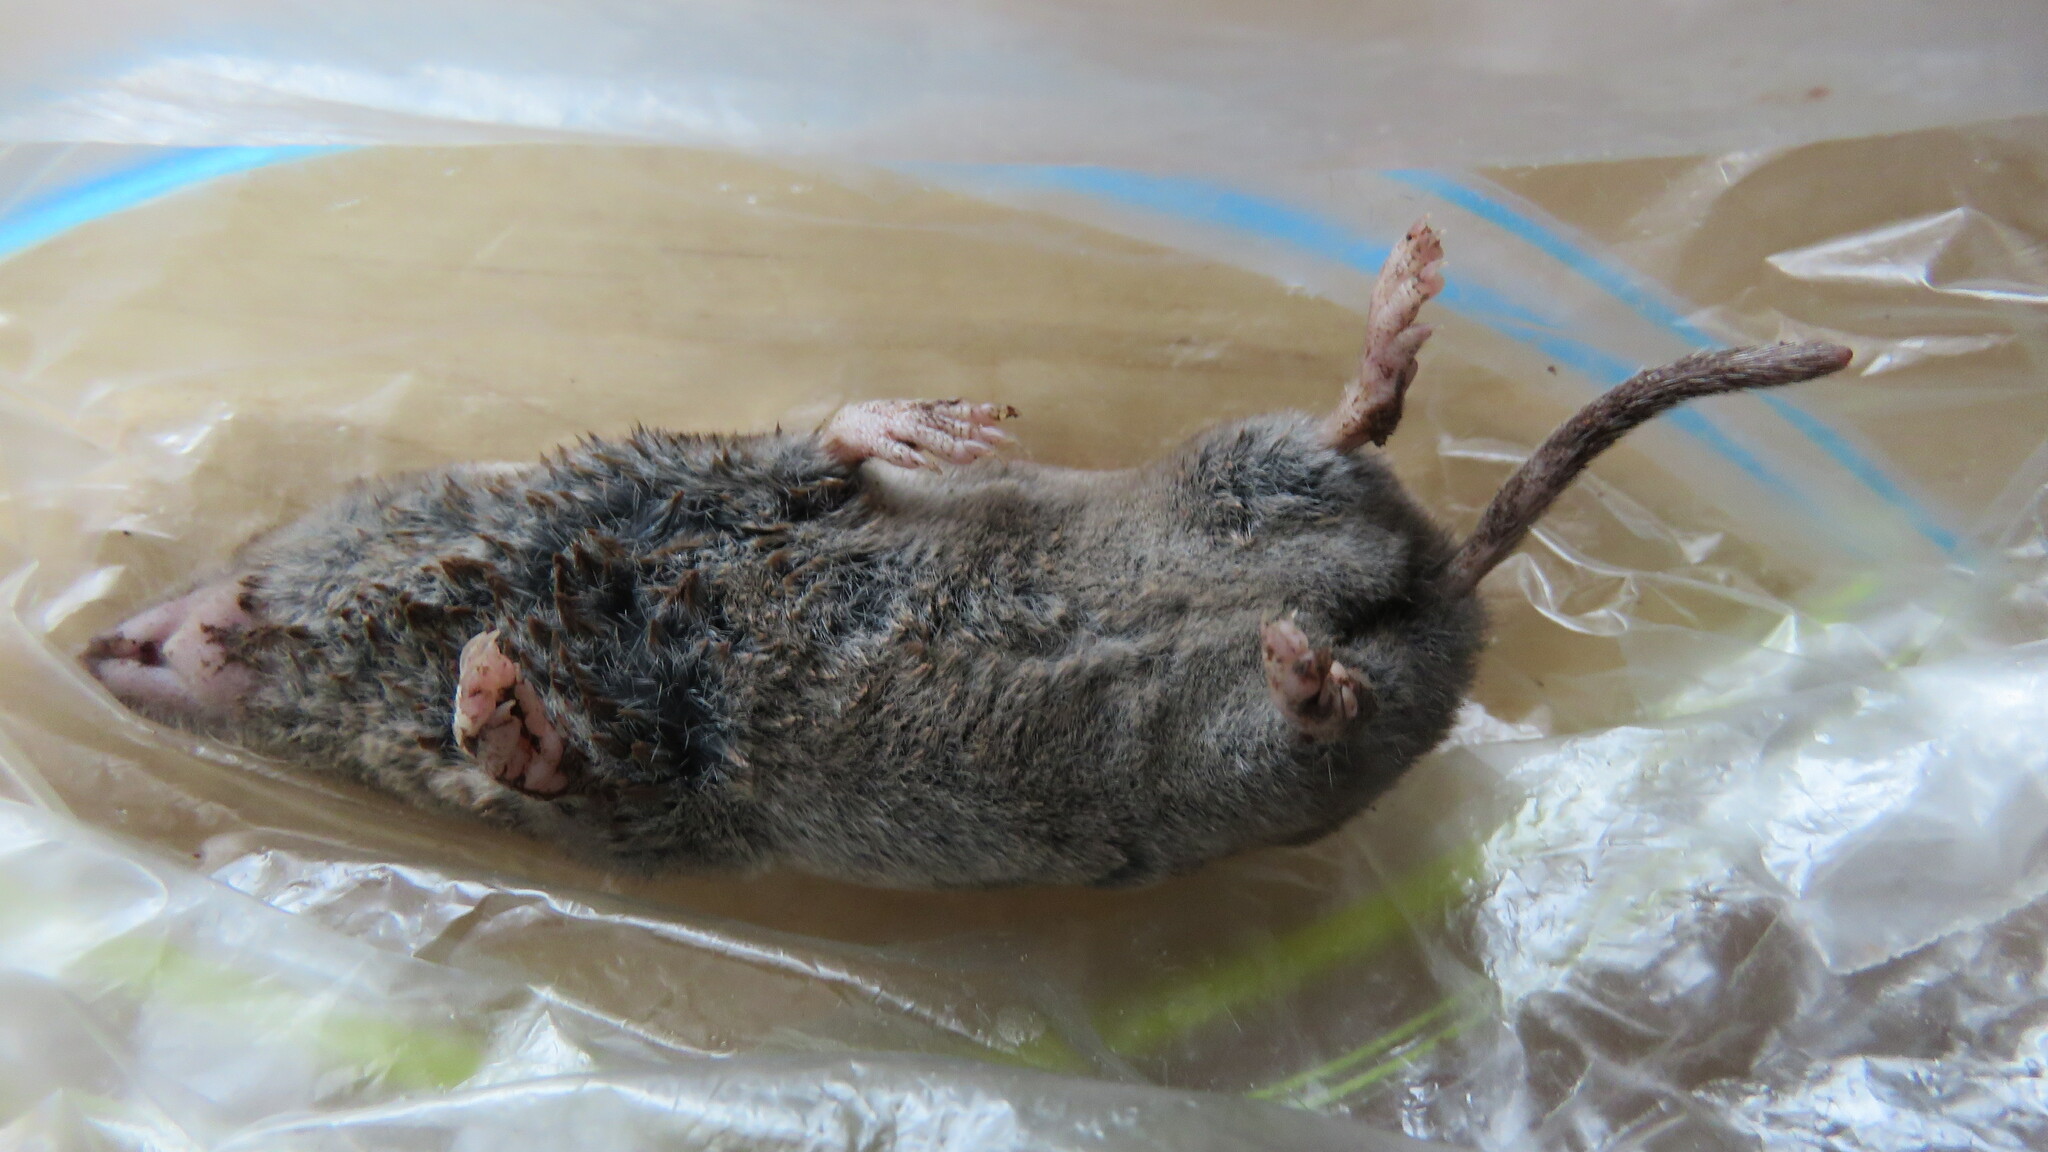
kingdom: Animalia
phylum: Chordata
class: Mammalia
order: Soricomorpha
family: Soricidae
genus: Blarina
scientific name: Blarina brevicauda
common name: Northern short-tailed shrew
